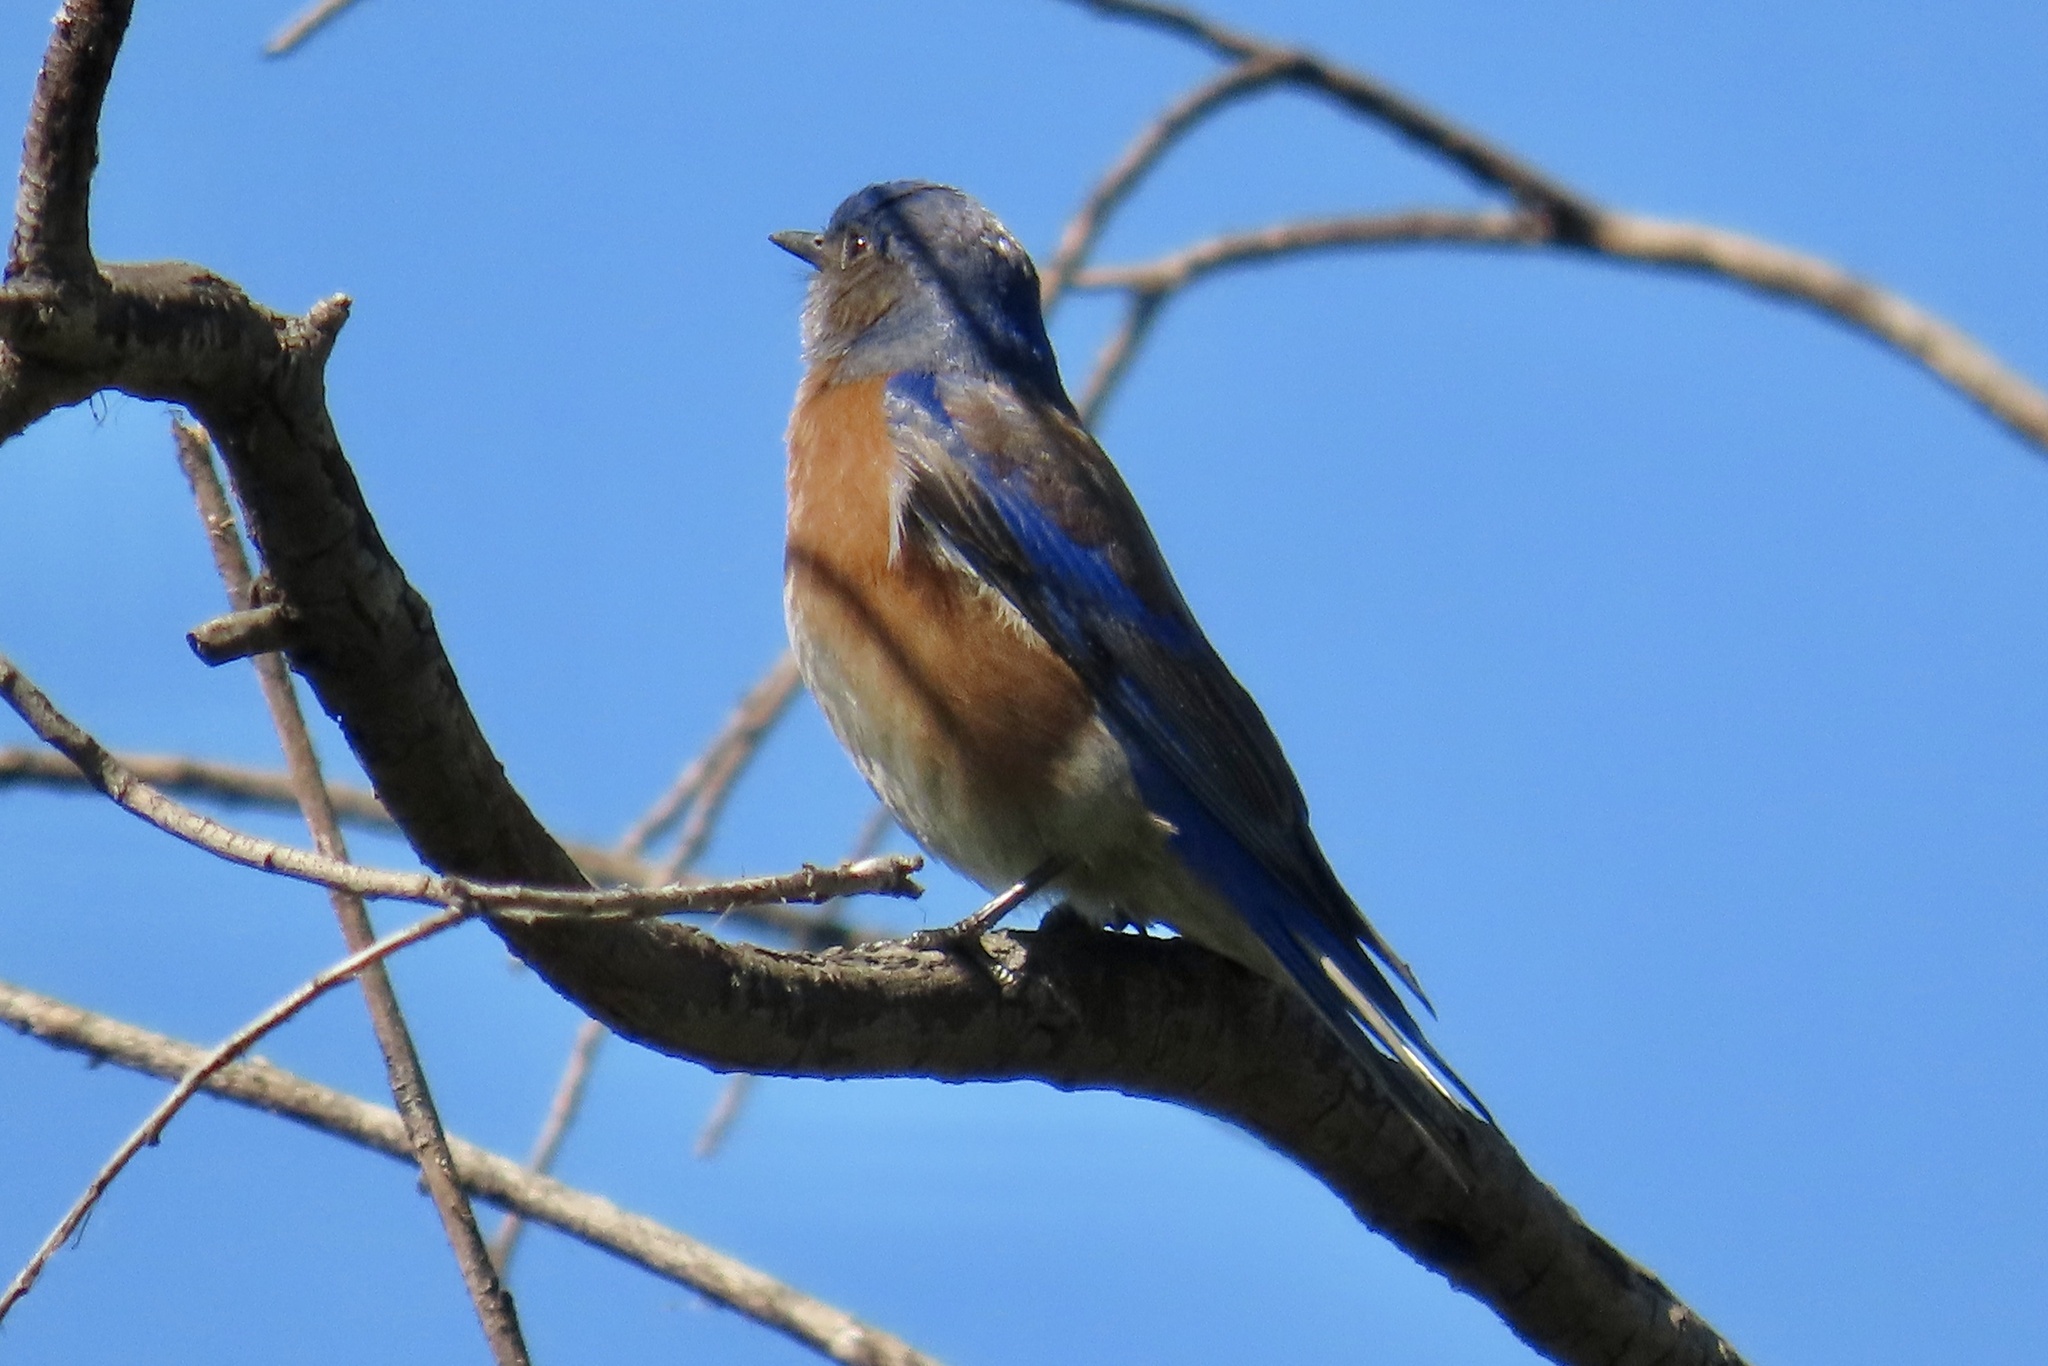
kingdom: Animalia
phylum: Chordata
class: Aves
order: Passeriformes
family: Turdidae
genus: Sialia
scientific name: Sialia mexicana
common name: Western bluebird
